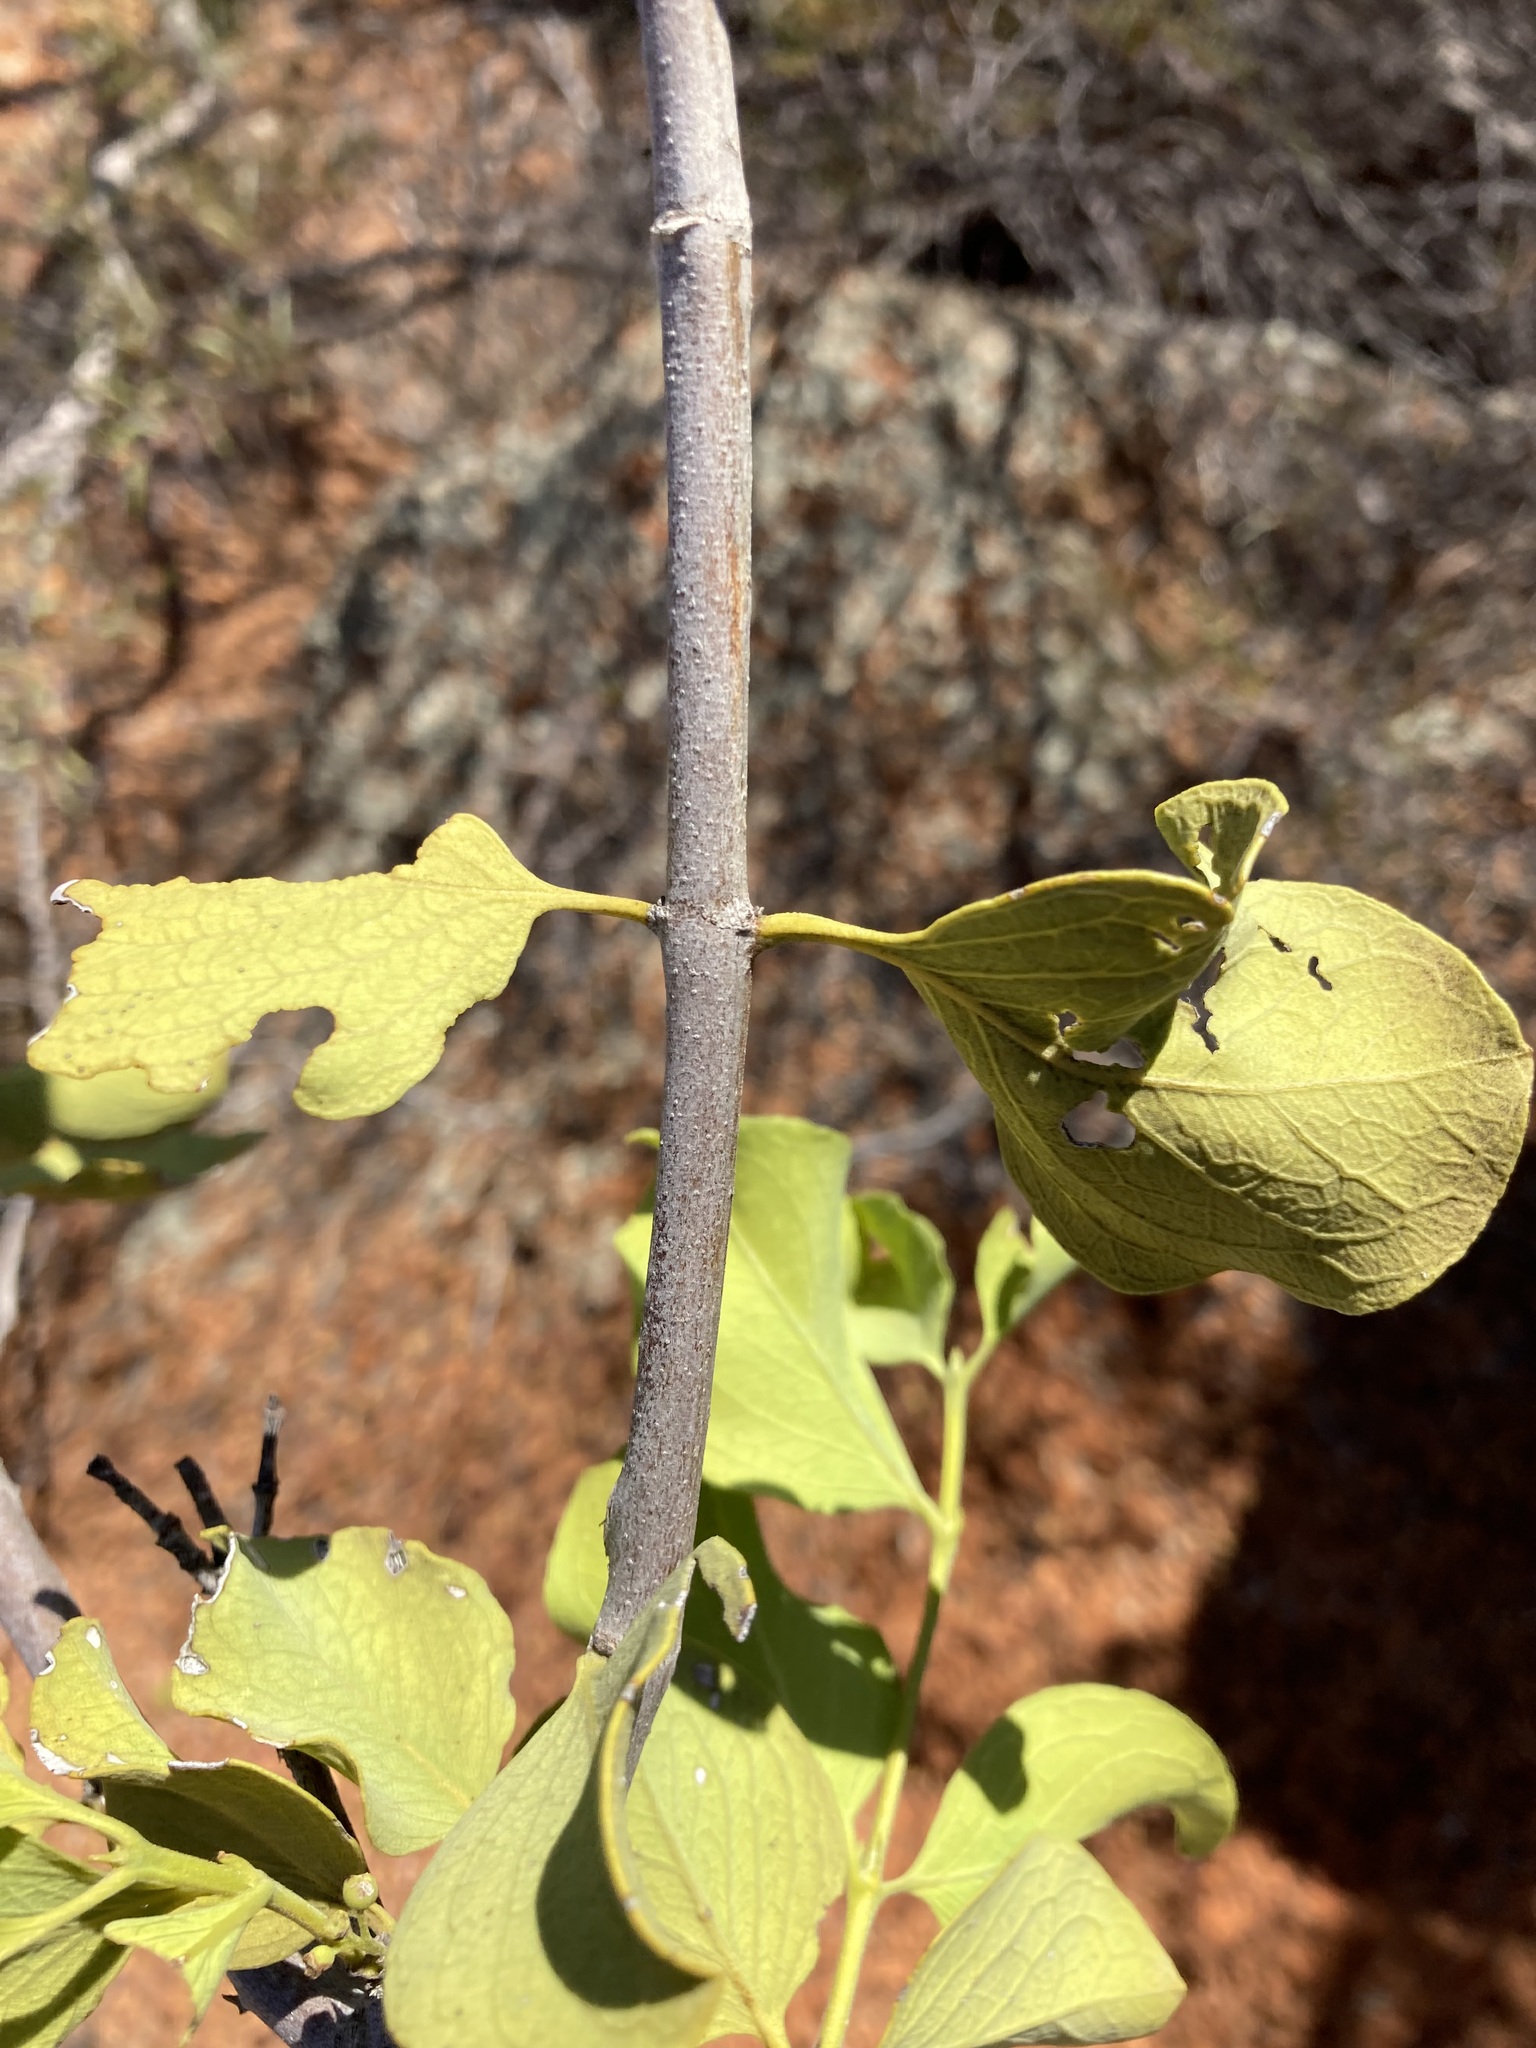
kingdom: Plantae
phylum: Tracheophyta
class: Magnoliopsida
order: Gentianales
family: Rubiaceae
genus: Psydrax
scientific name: Psydrax latifolius
